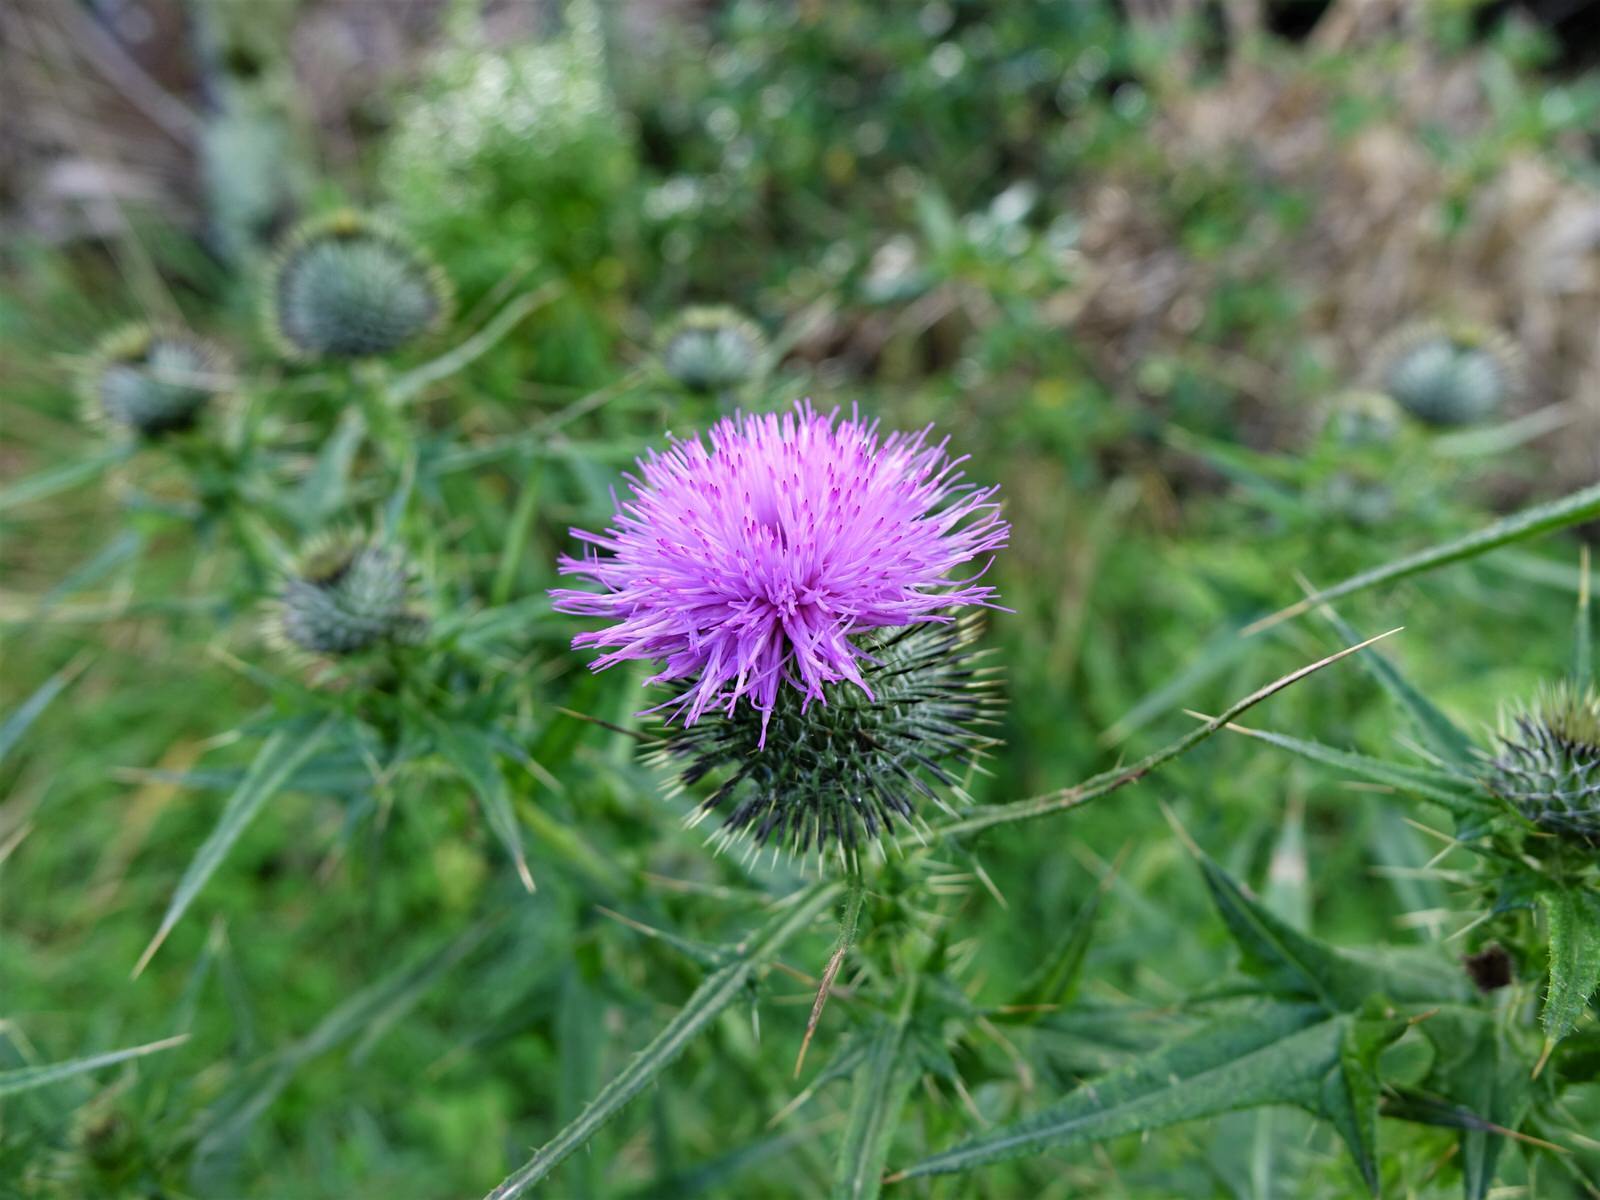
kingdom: Plantae
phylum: Tracheophyta
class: Magnoliopsida
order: Asterales
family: Asteraceae
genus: Cirsium
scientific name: Cirsium vulgare
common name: Bull thistle
